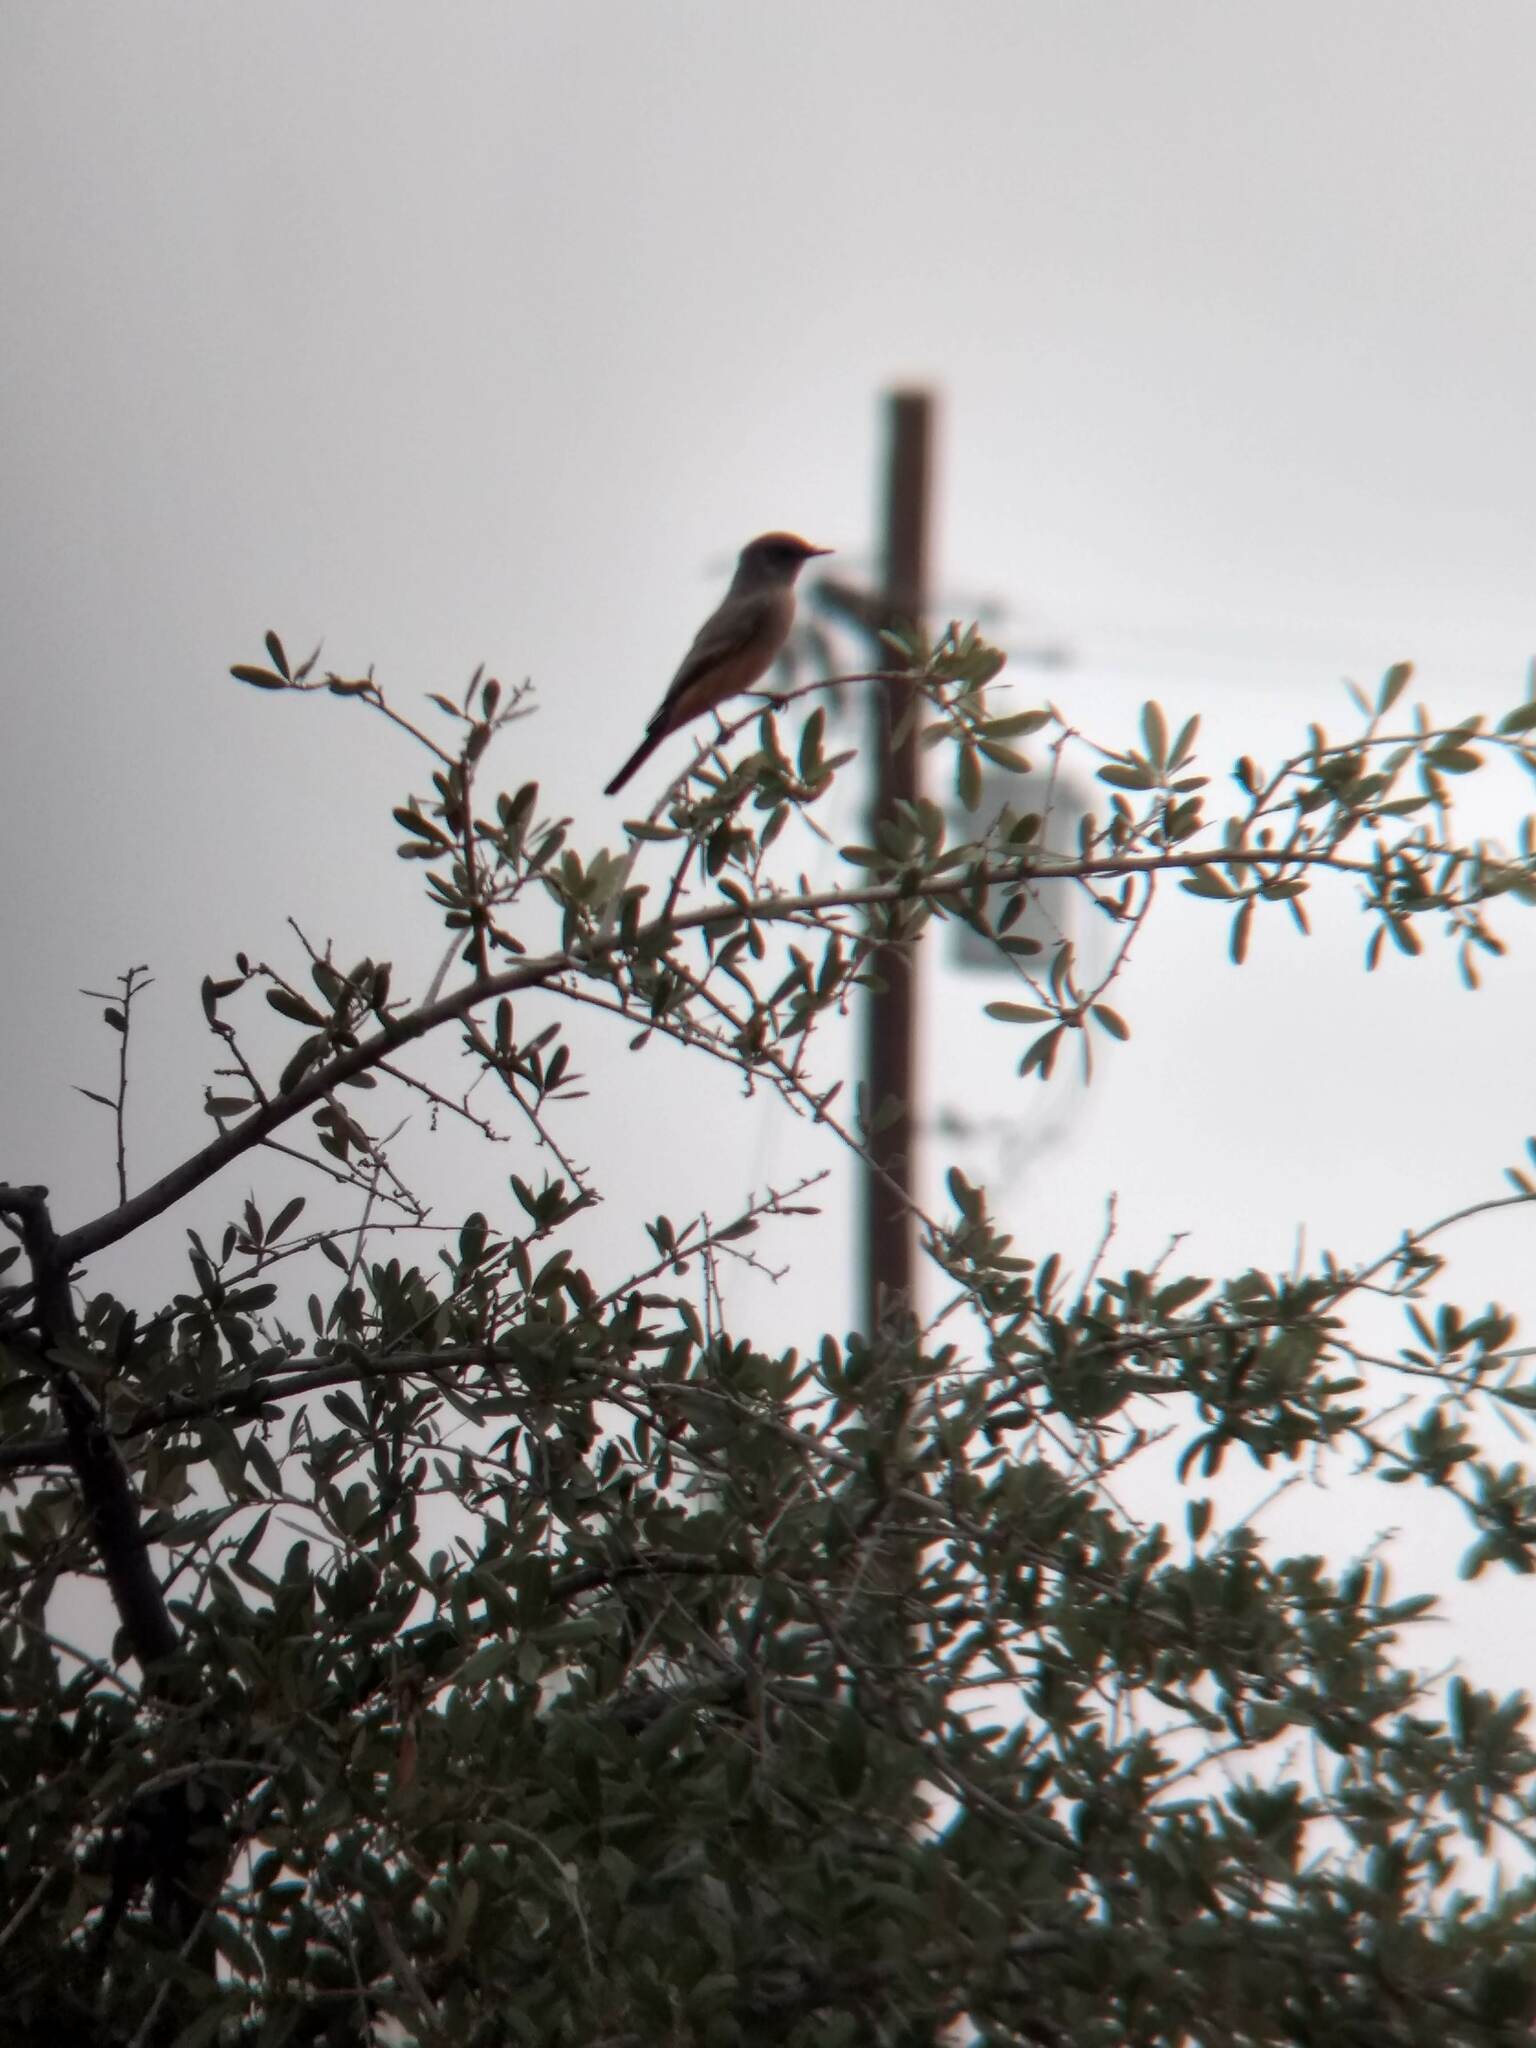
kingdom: Animalia
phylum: Chordata
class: Aves
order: Passeriformes
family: Tyrannidae
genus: Sayornis
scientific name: Sayornis saya
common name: Say's phoebe
